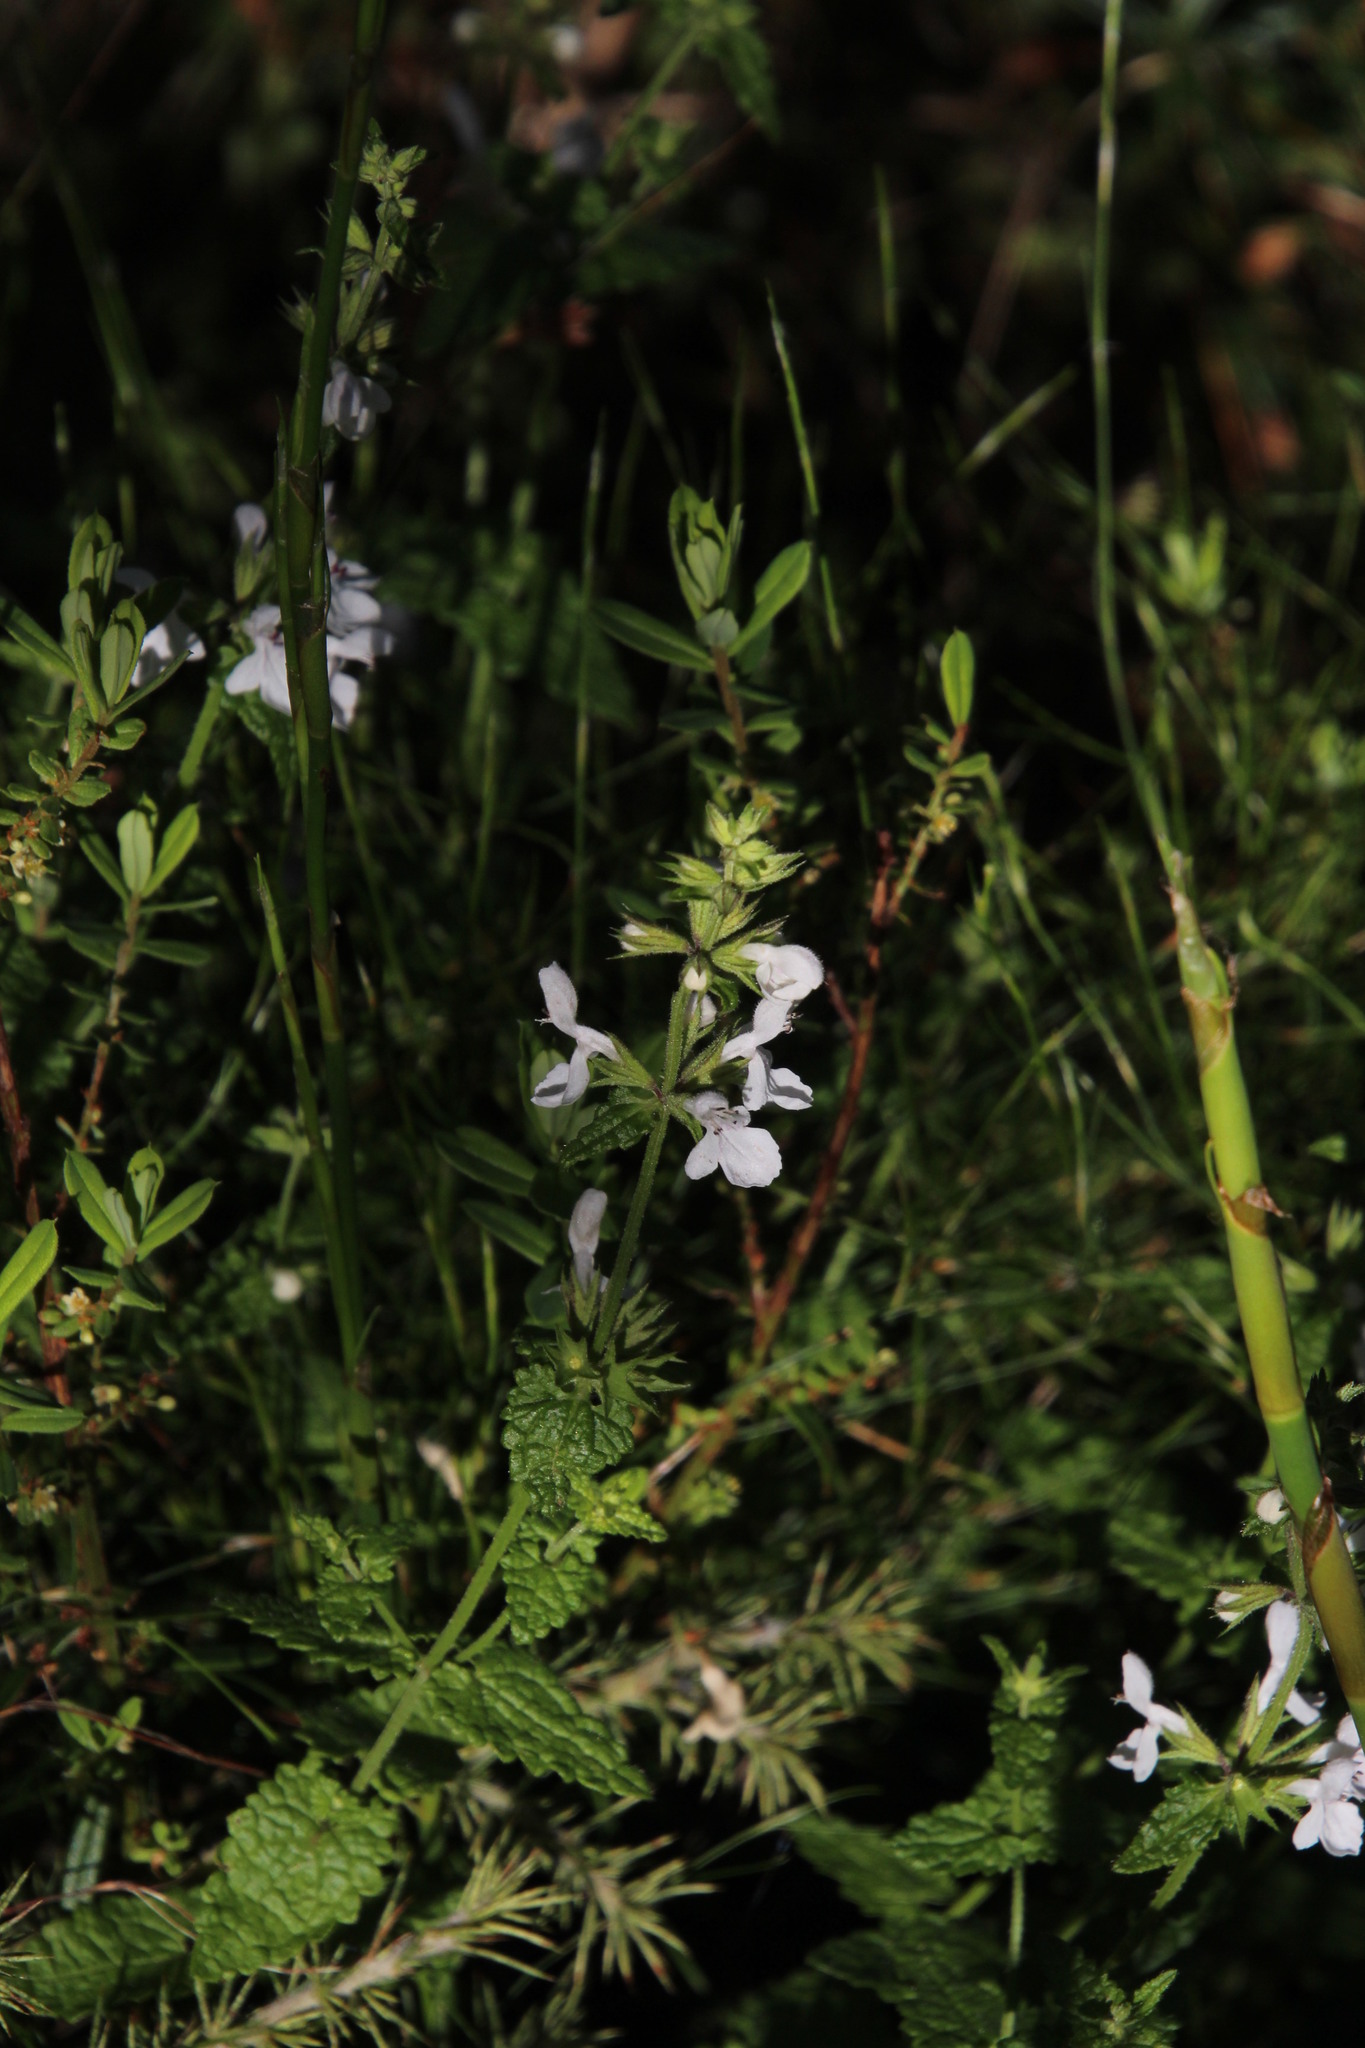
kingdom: Plantae
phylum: Tracheophyta
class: Magnoliopsida
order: Lamiales
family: Lamiaceae
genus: Stachys
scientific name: Stachys aethiopica
